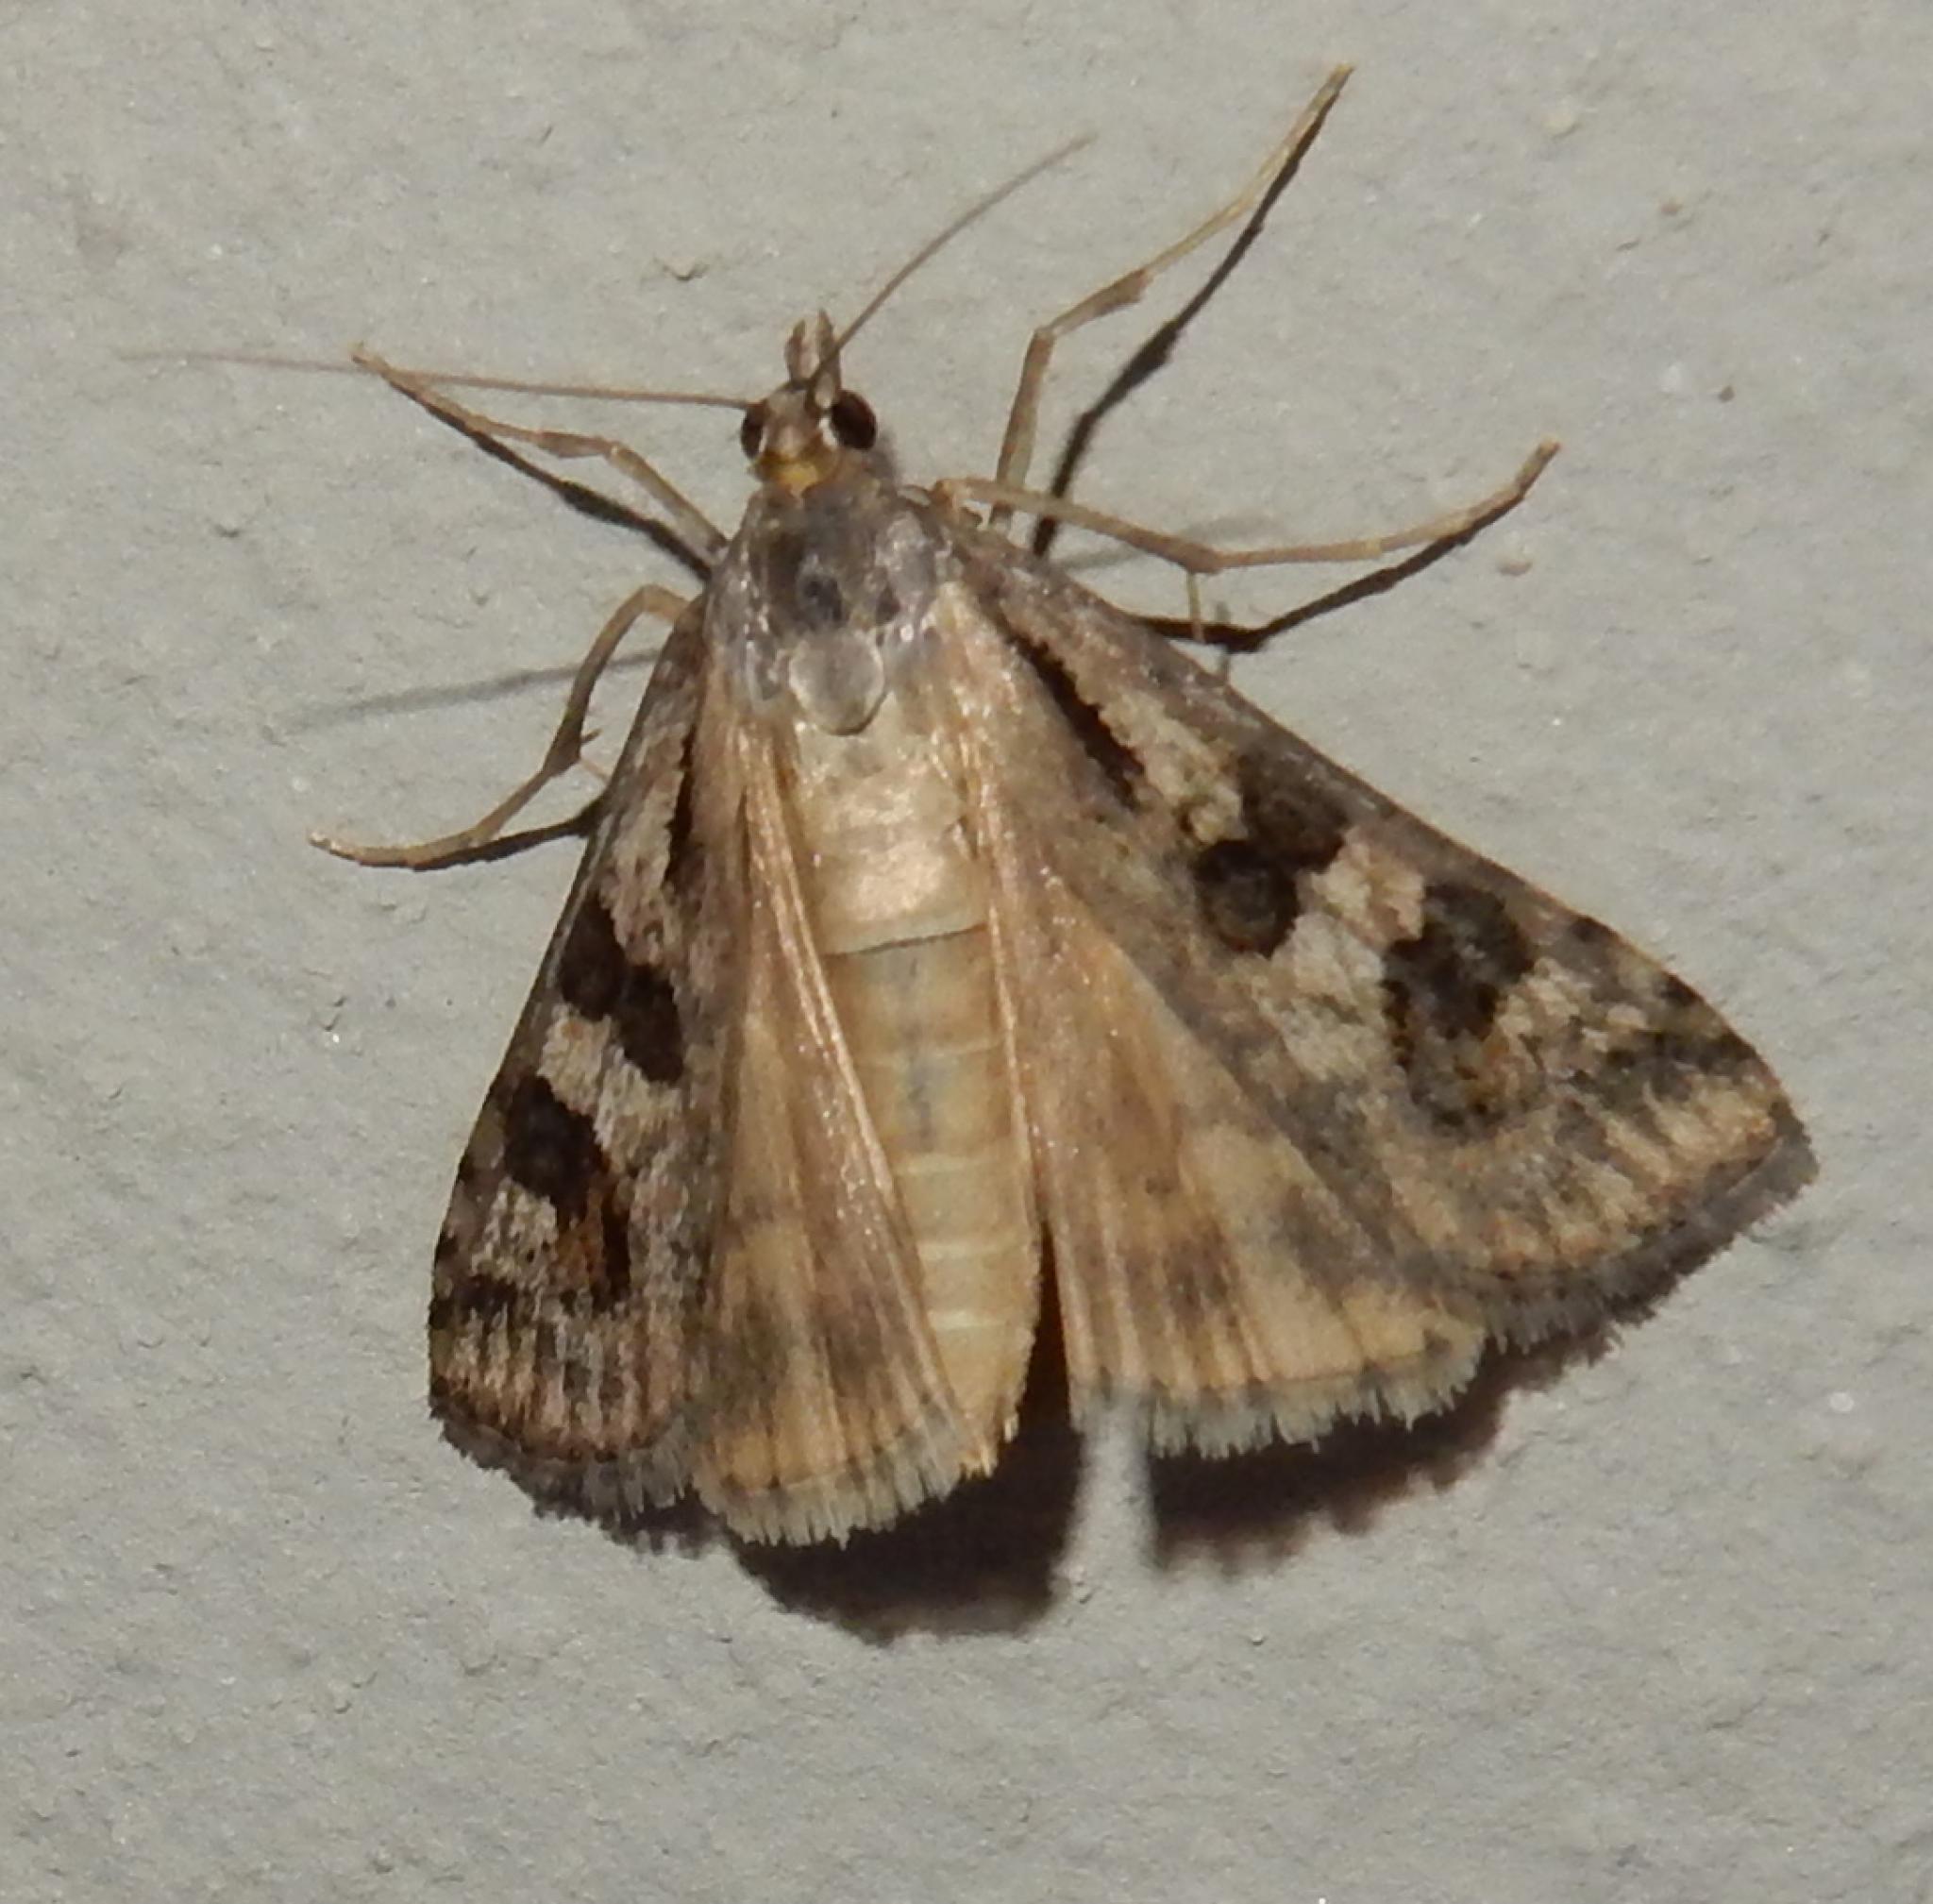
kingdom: Animalia
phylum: Arthropoda
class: Insecta
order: Lepidoptera
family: Crambidae
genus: Nomophila
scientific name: Nomophila noctuella
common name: Rush veneer
